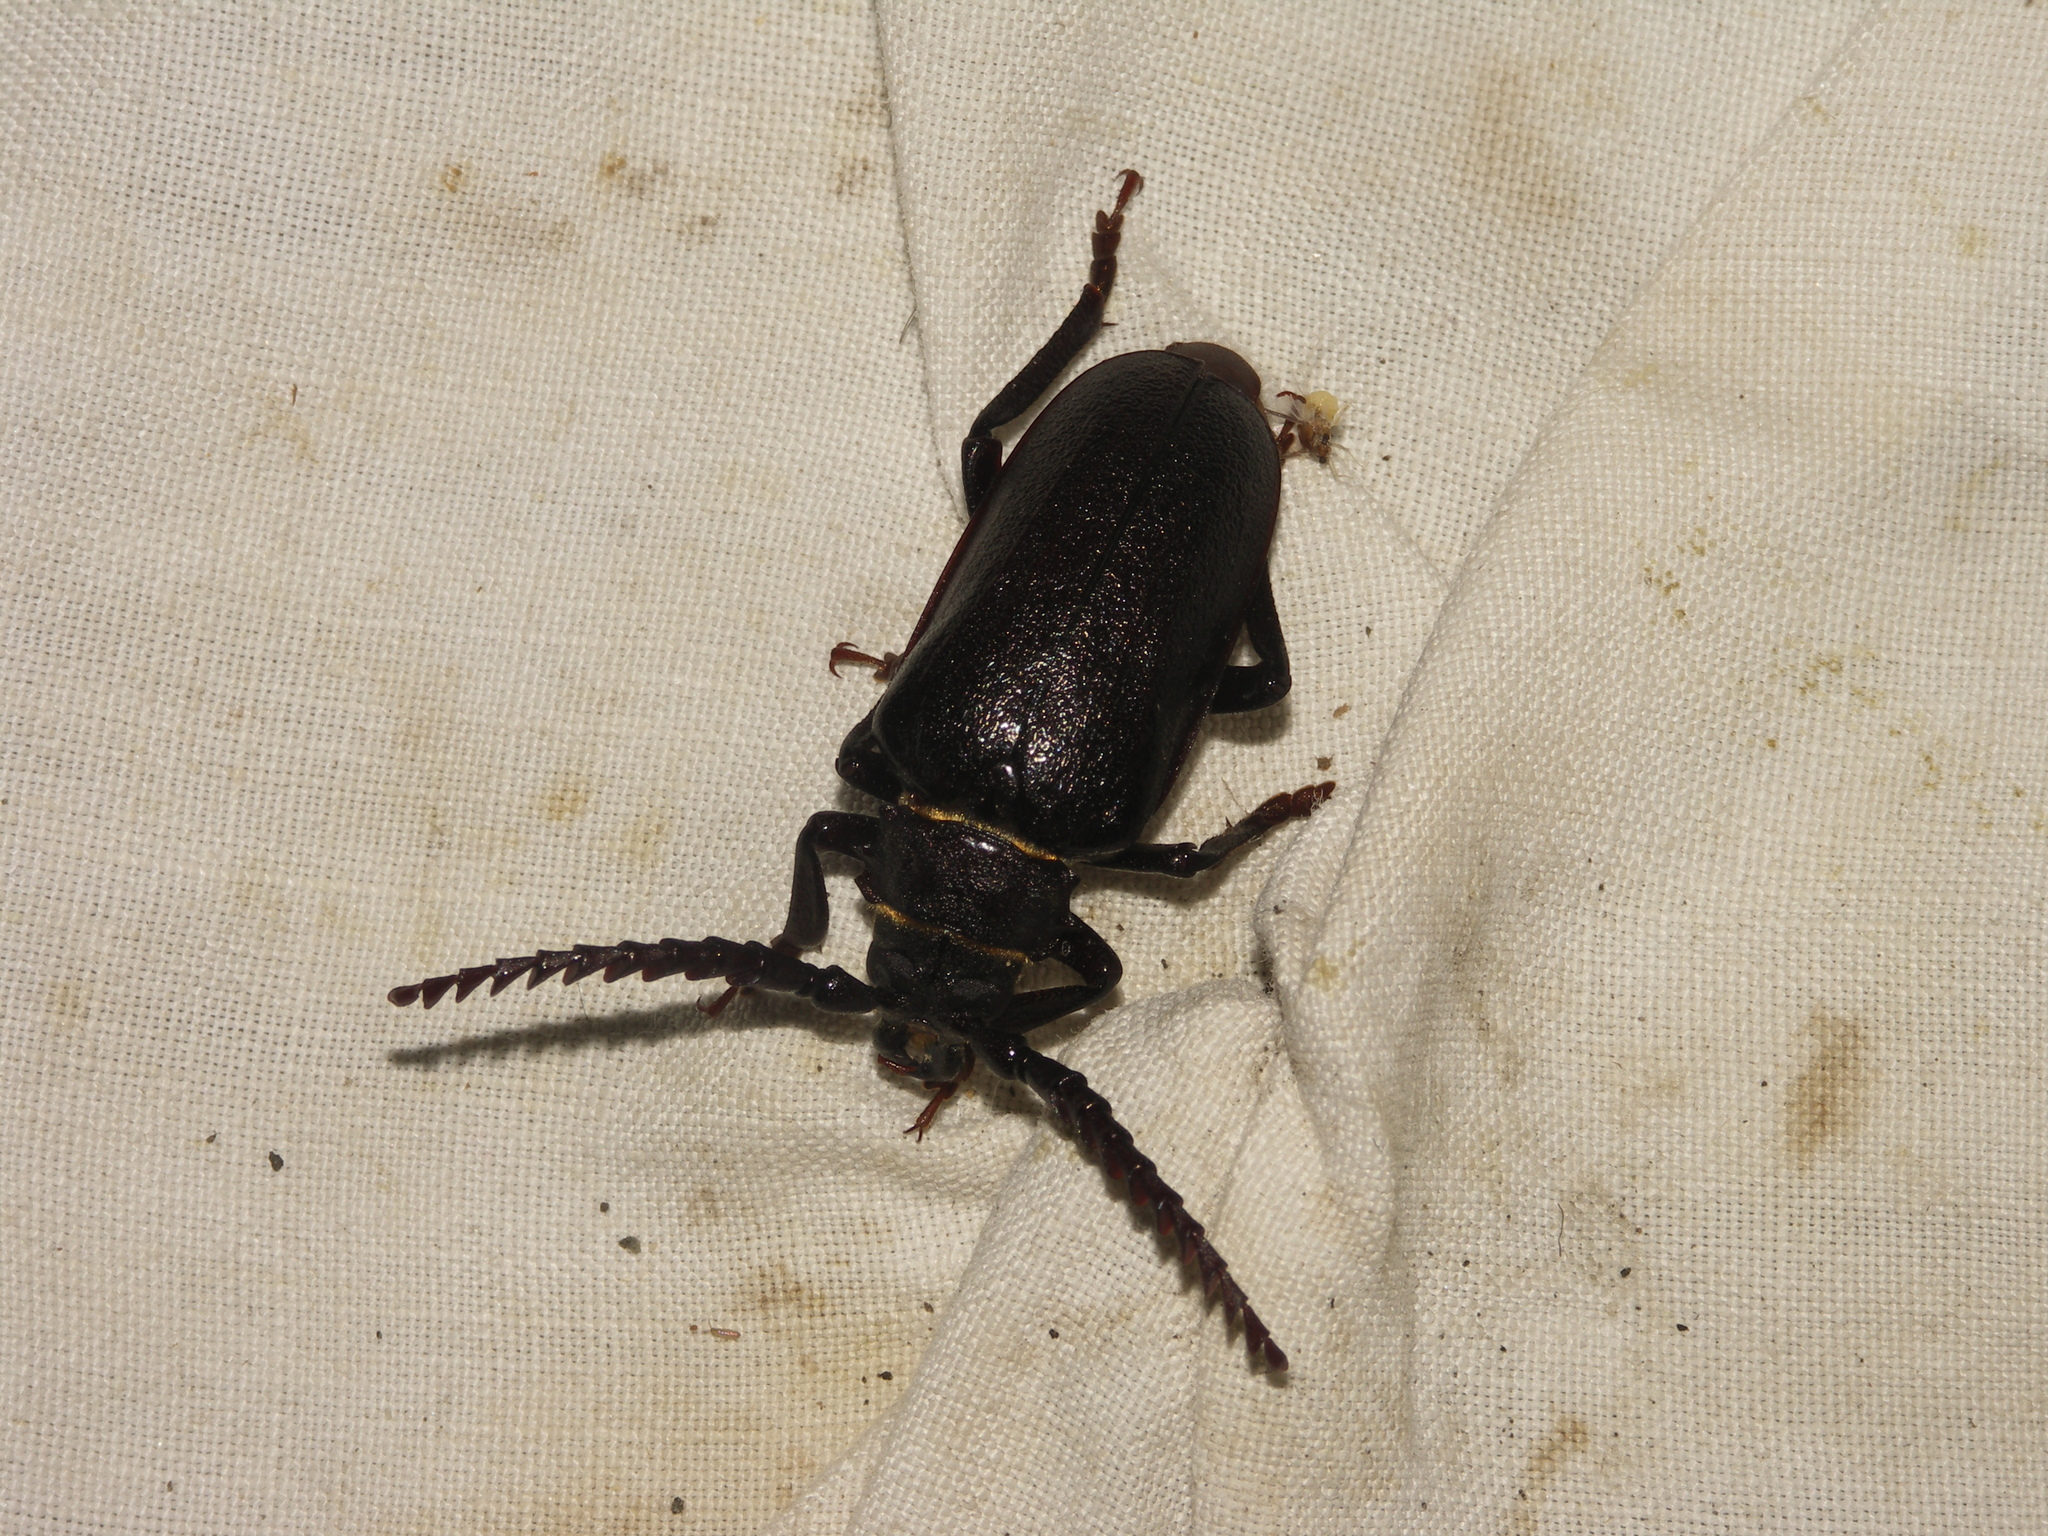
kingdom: Animalia
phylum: Arthropoda
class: Insecta
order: Coleoptera
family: Cerambycidae
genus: Prionus
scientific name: Prionus coriarius
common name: Tanner beetle
